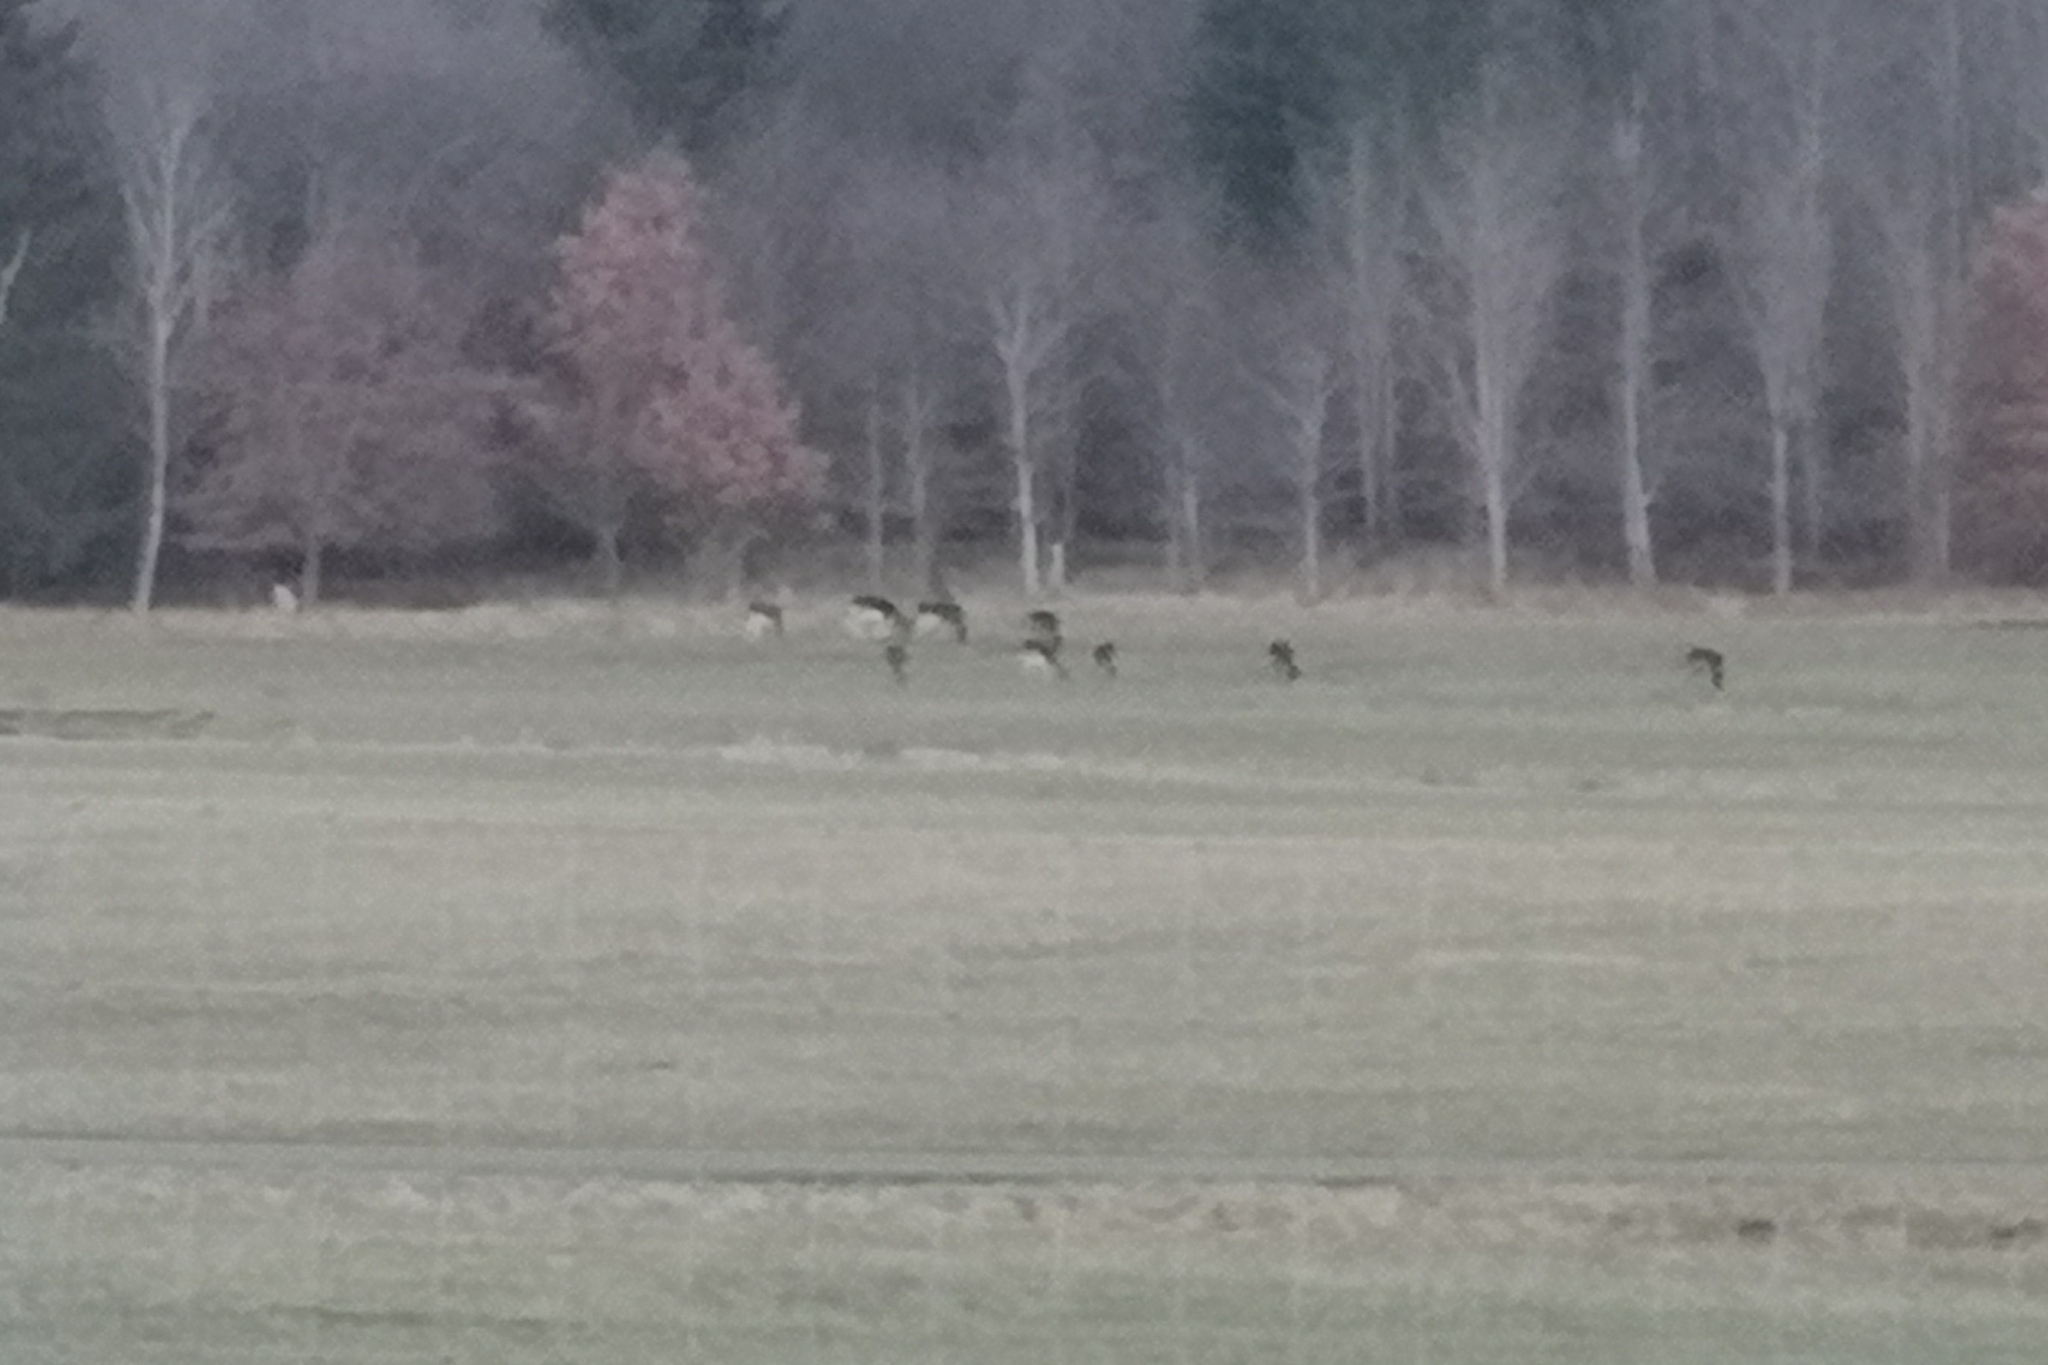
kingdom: Animalia
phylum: Chordata
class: Mammalia
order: Artiodactyla
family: Cervidae
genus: Dama
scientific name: Dama dama
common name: Fallow deer
